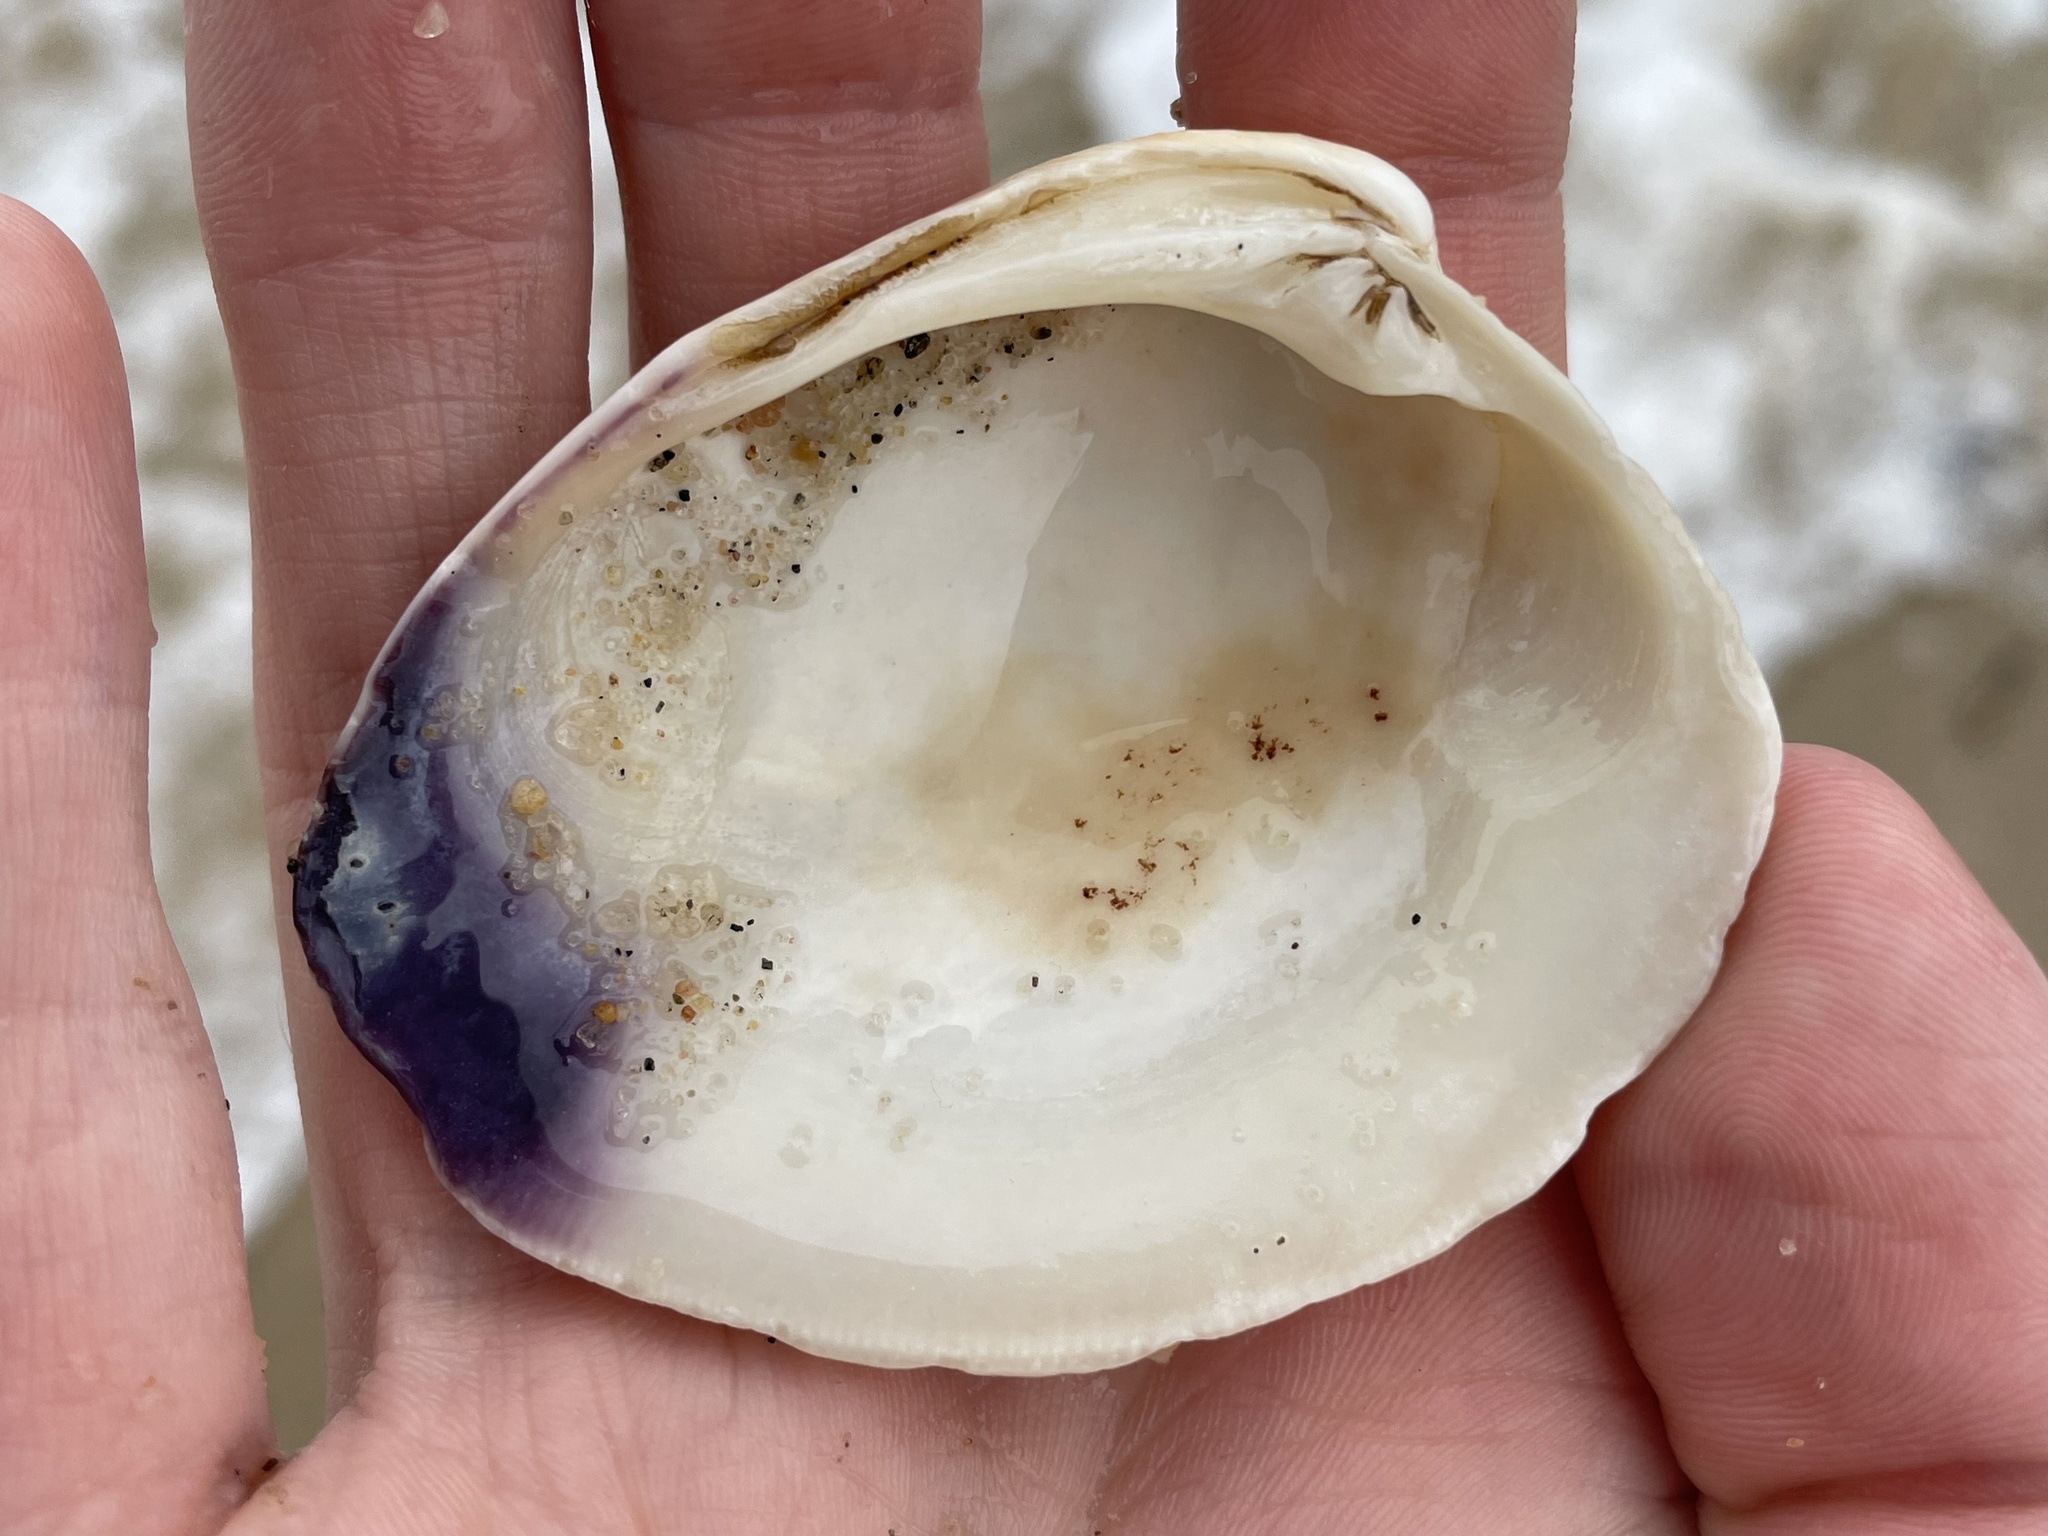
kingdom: Animalia
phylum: Mollusca
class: Bivalvia
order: Venerida
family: Veneridae
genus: Mercenaria
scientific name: Mercenaria mercenaria
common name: American hard-shelled clam
